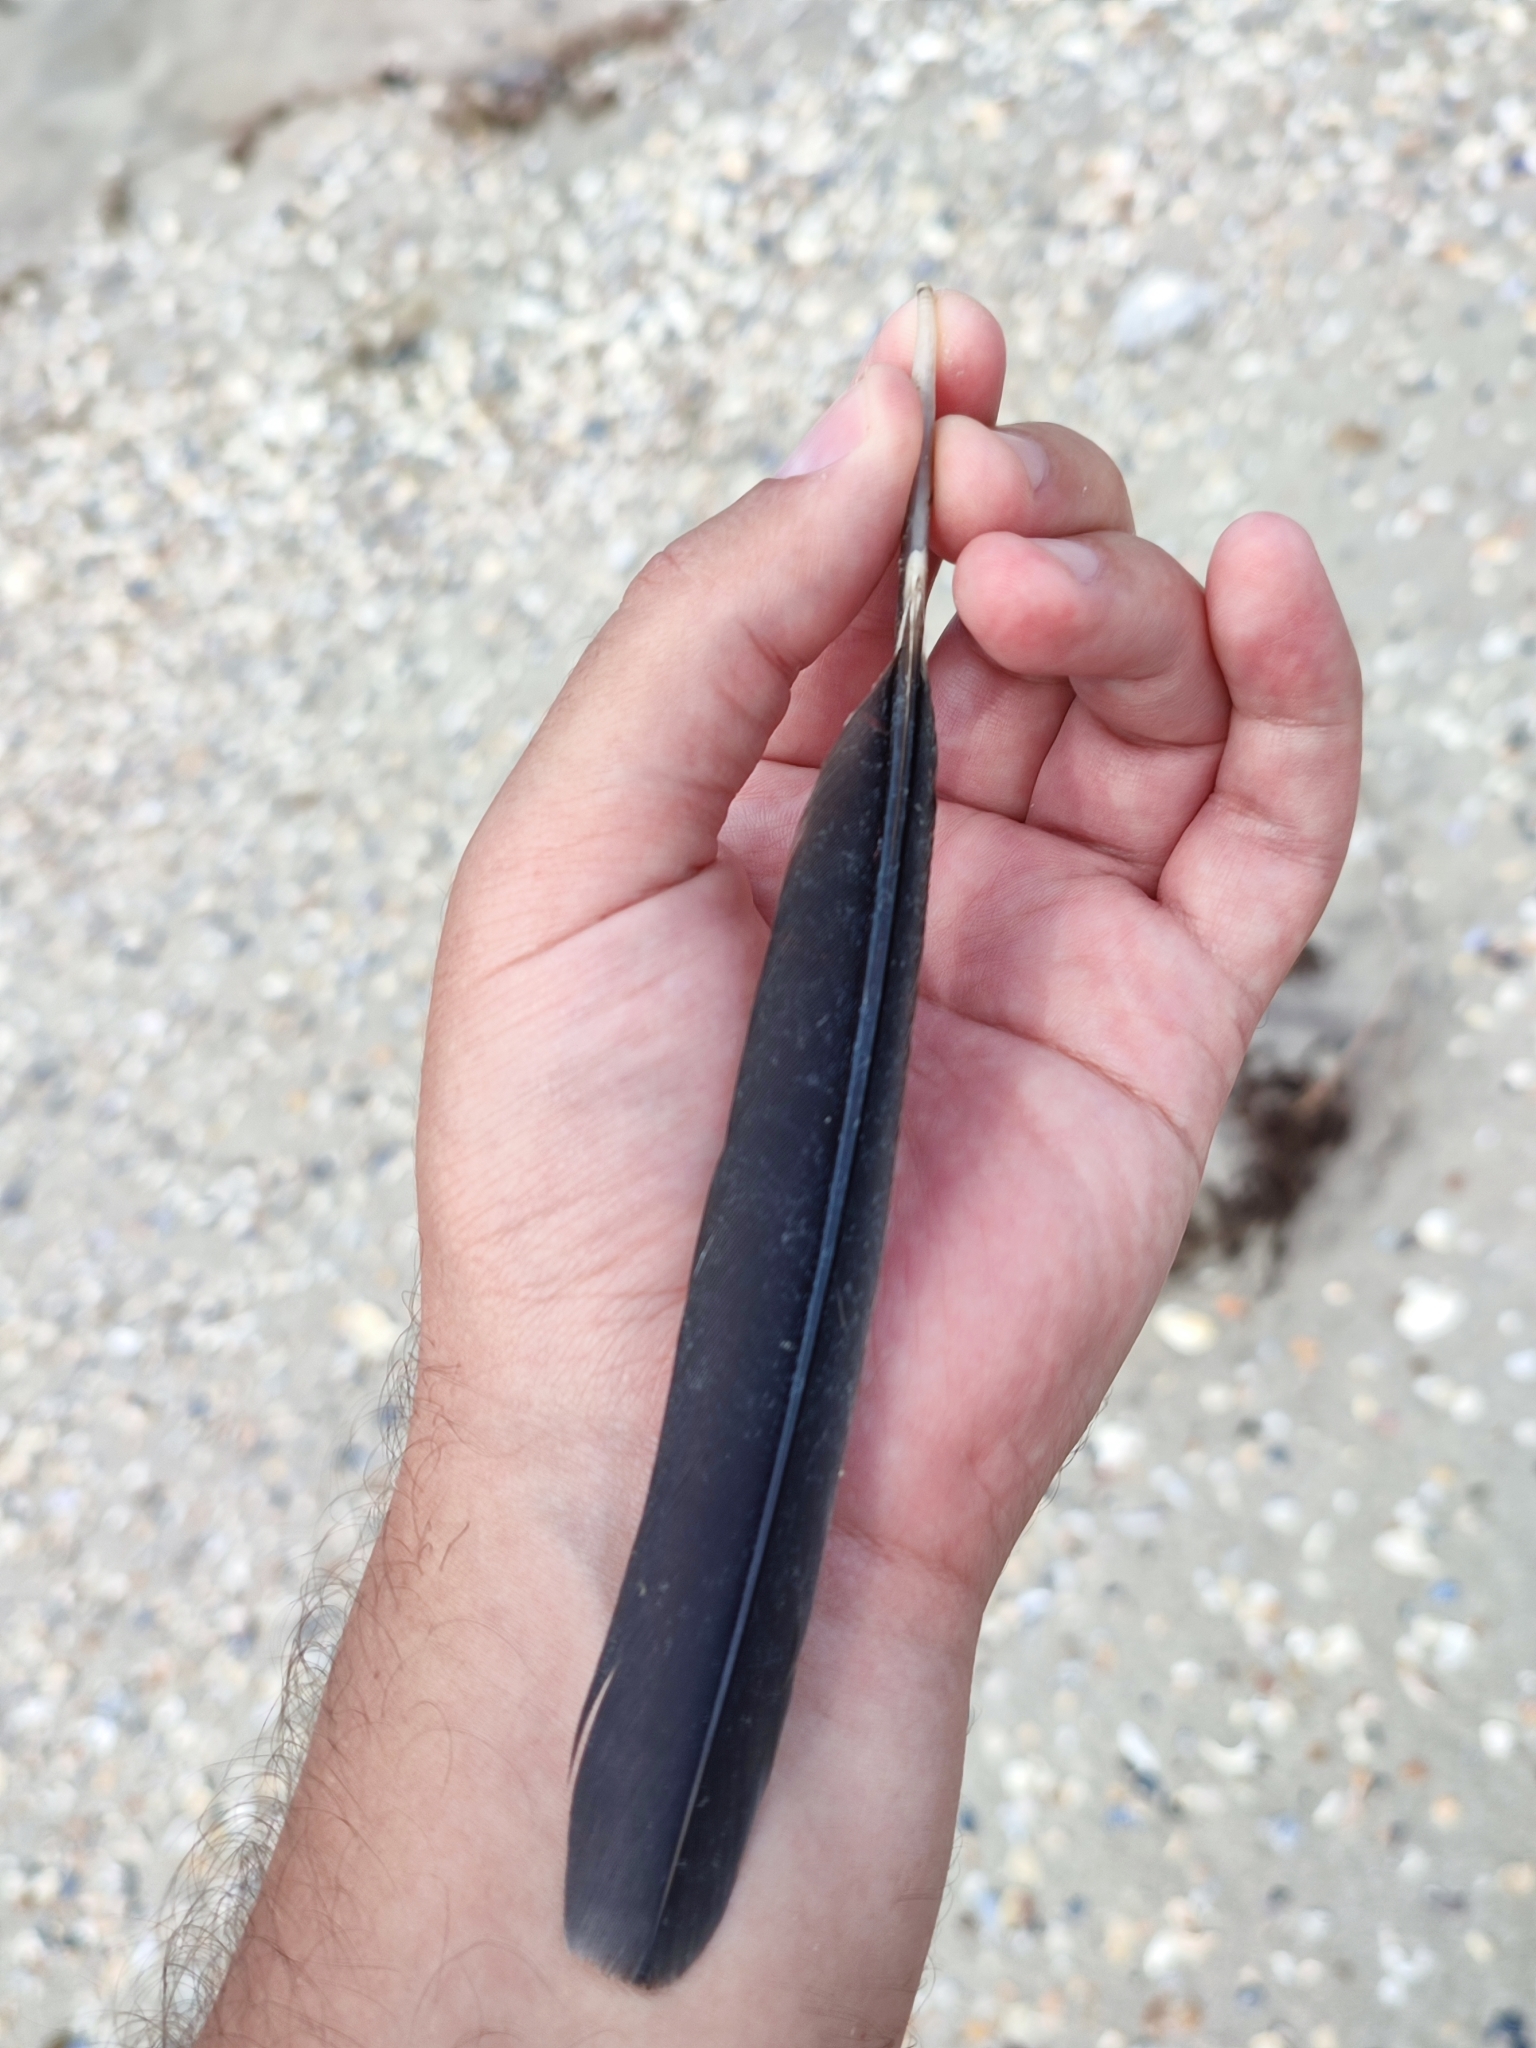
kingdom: Animalia
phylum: Chordata
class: Aves
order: Suliformes
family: Phalacrocoracidae
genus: Phalacrocorax
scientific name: Phalacrocorax carbo
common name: Great cormorant
